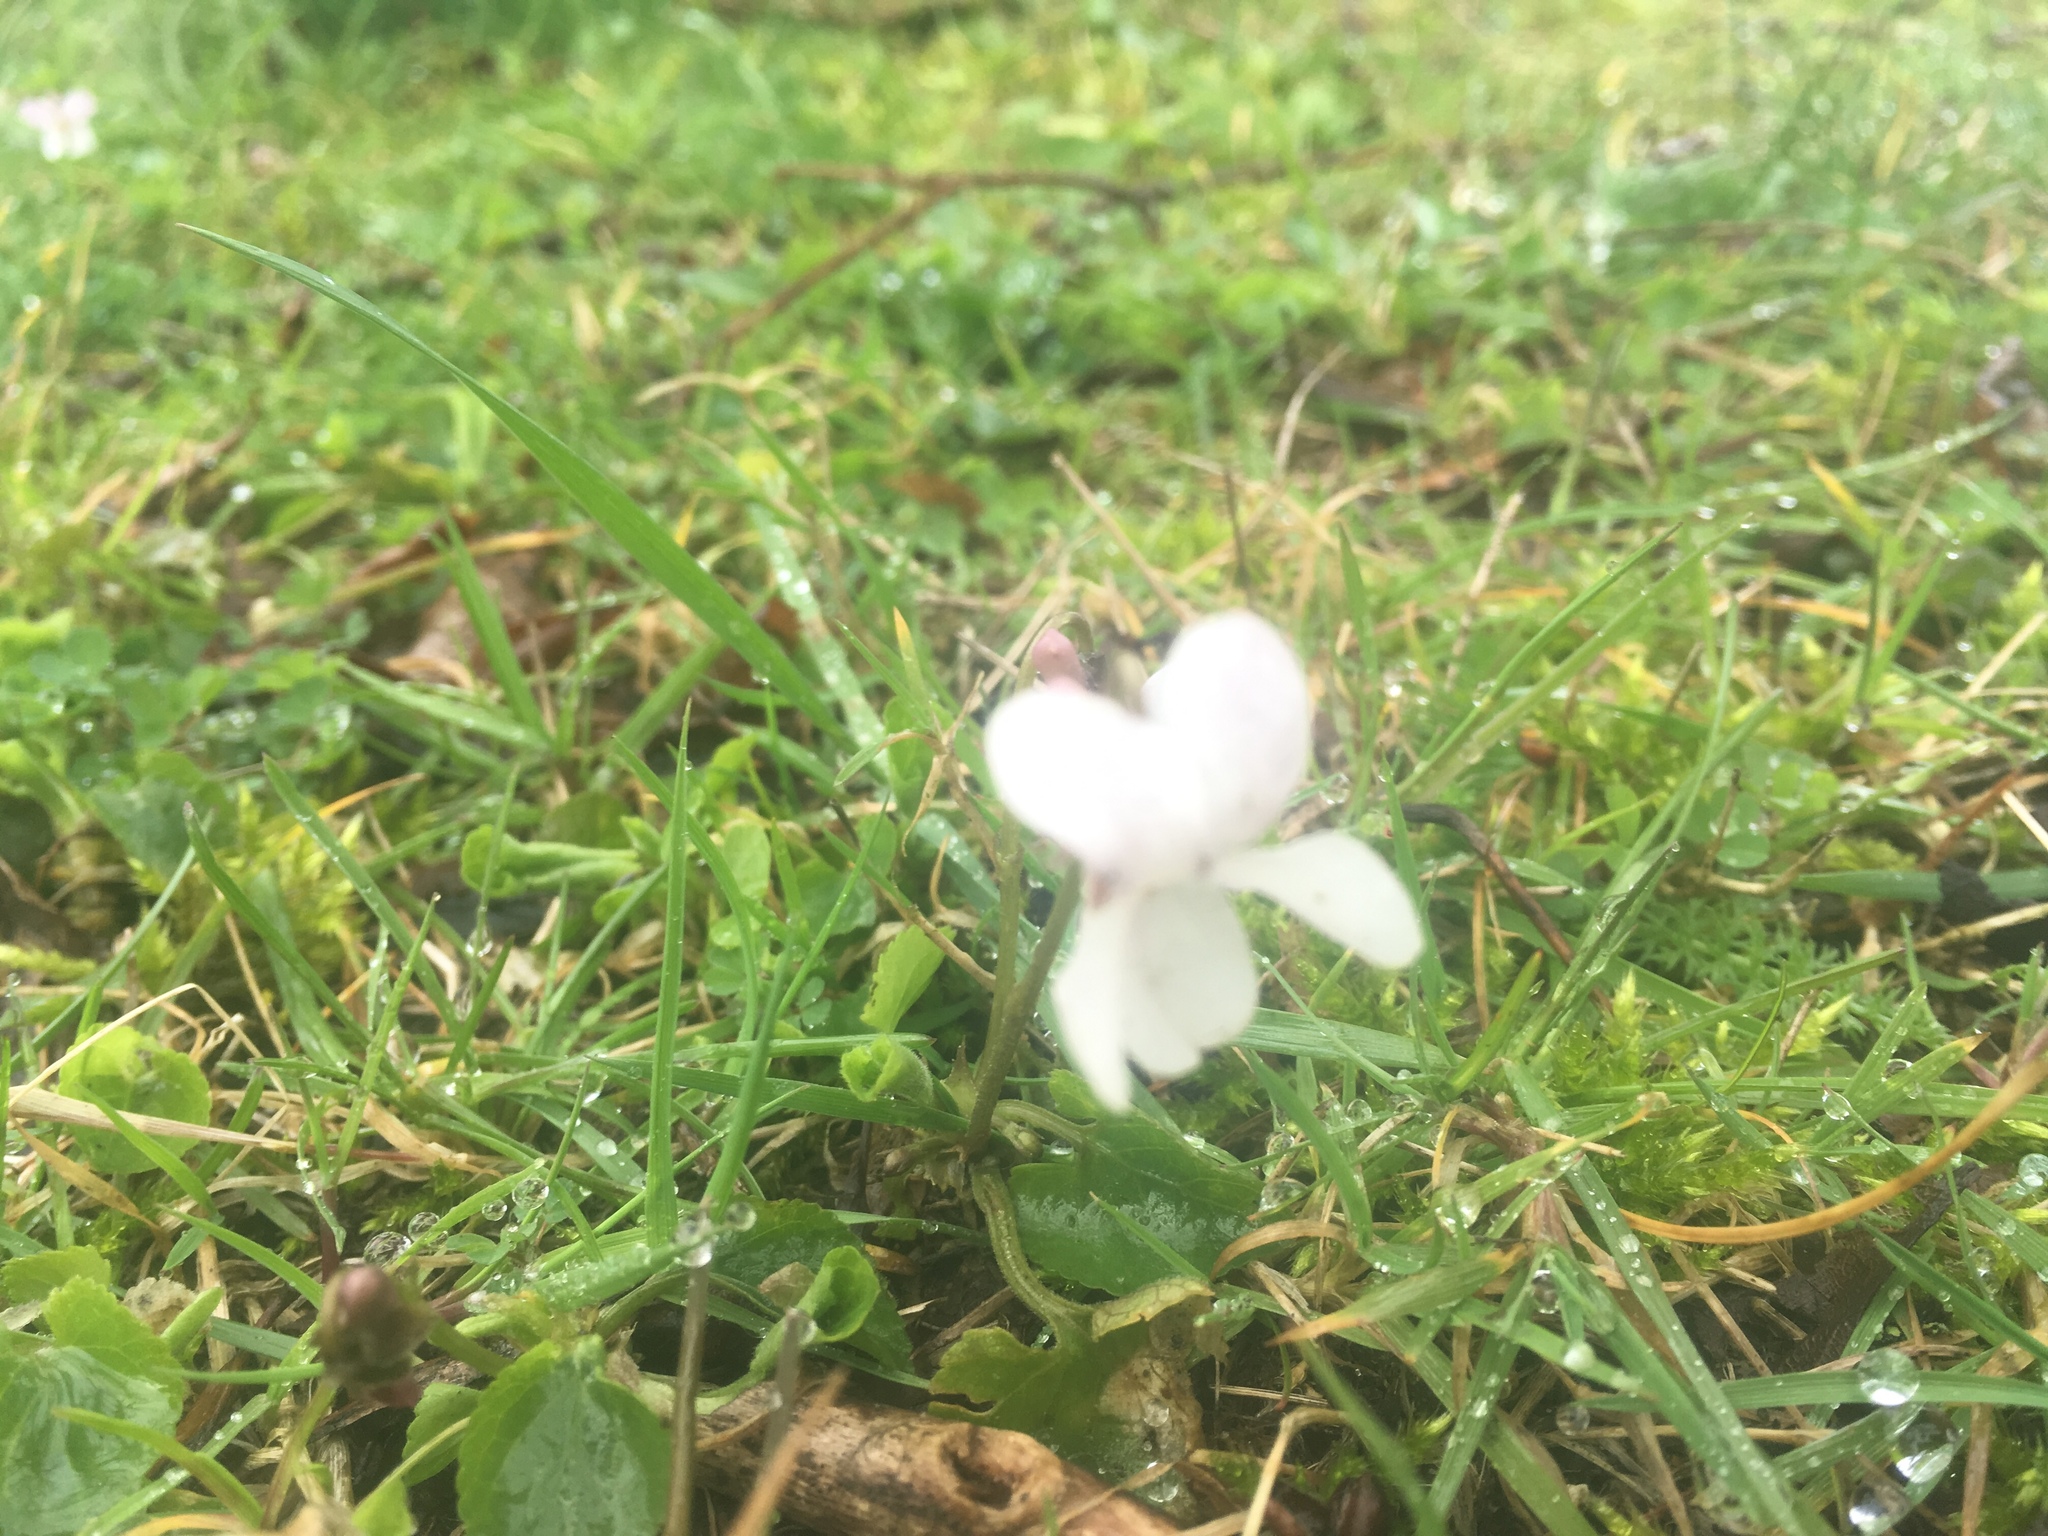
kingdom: Plantae
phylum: Tracheophyta
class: Magnoliopsida
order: Malpighiales
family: Violaceae
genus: Viola
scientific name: Viola odorata
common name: Sweet violet
